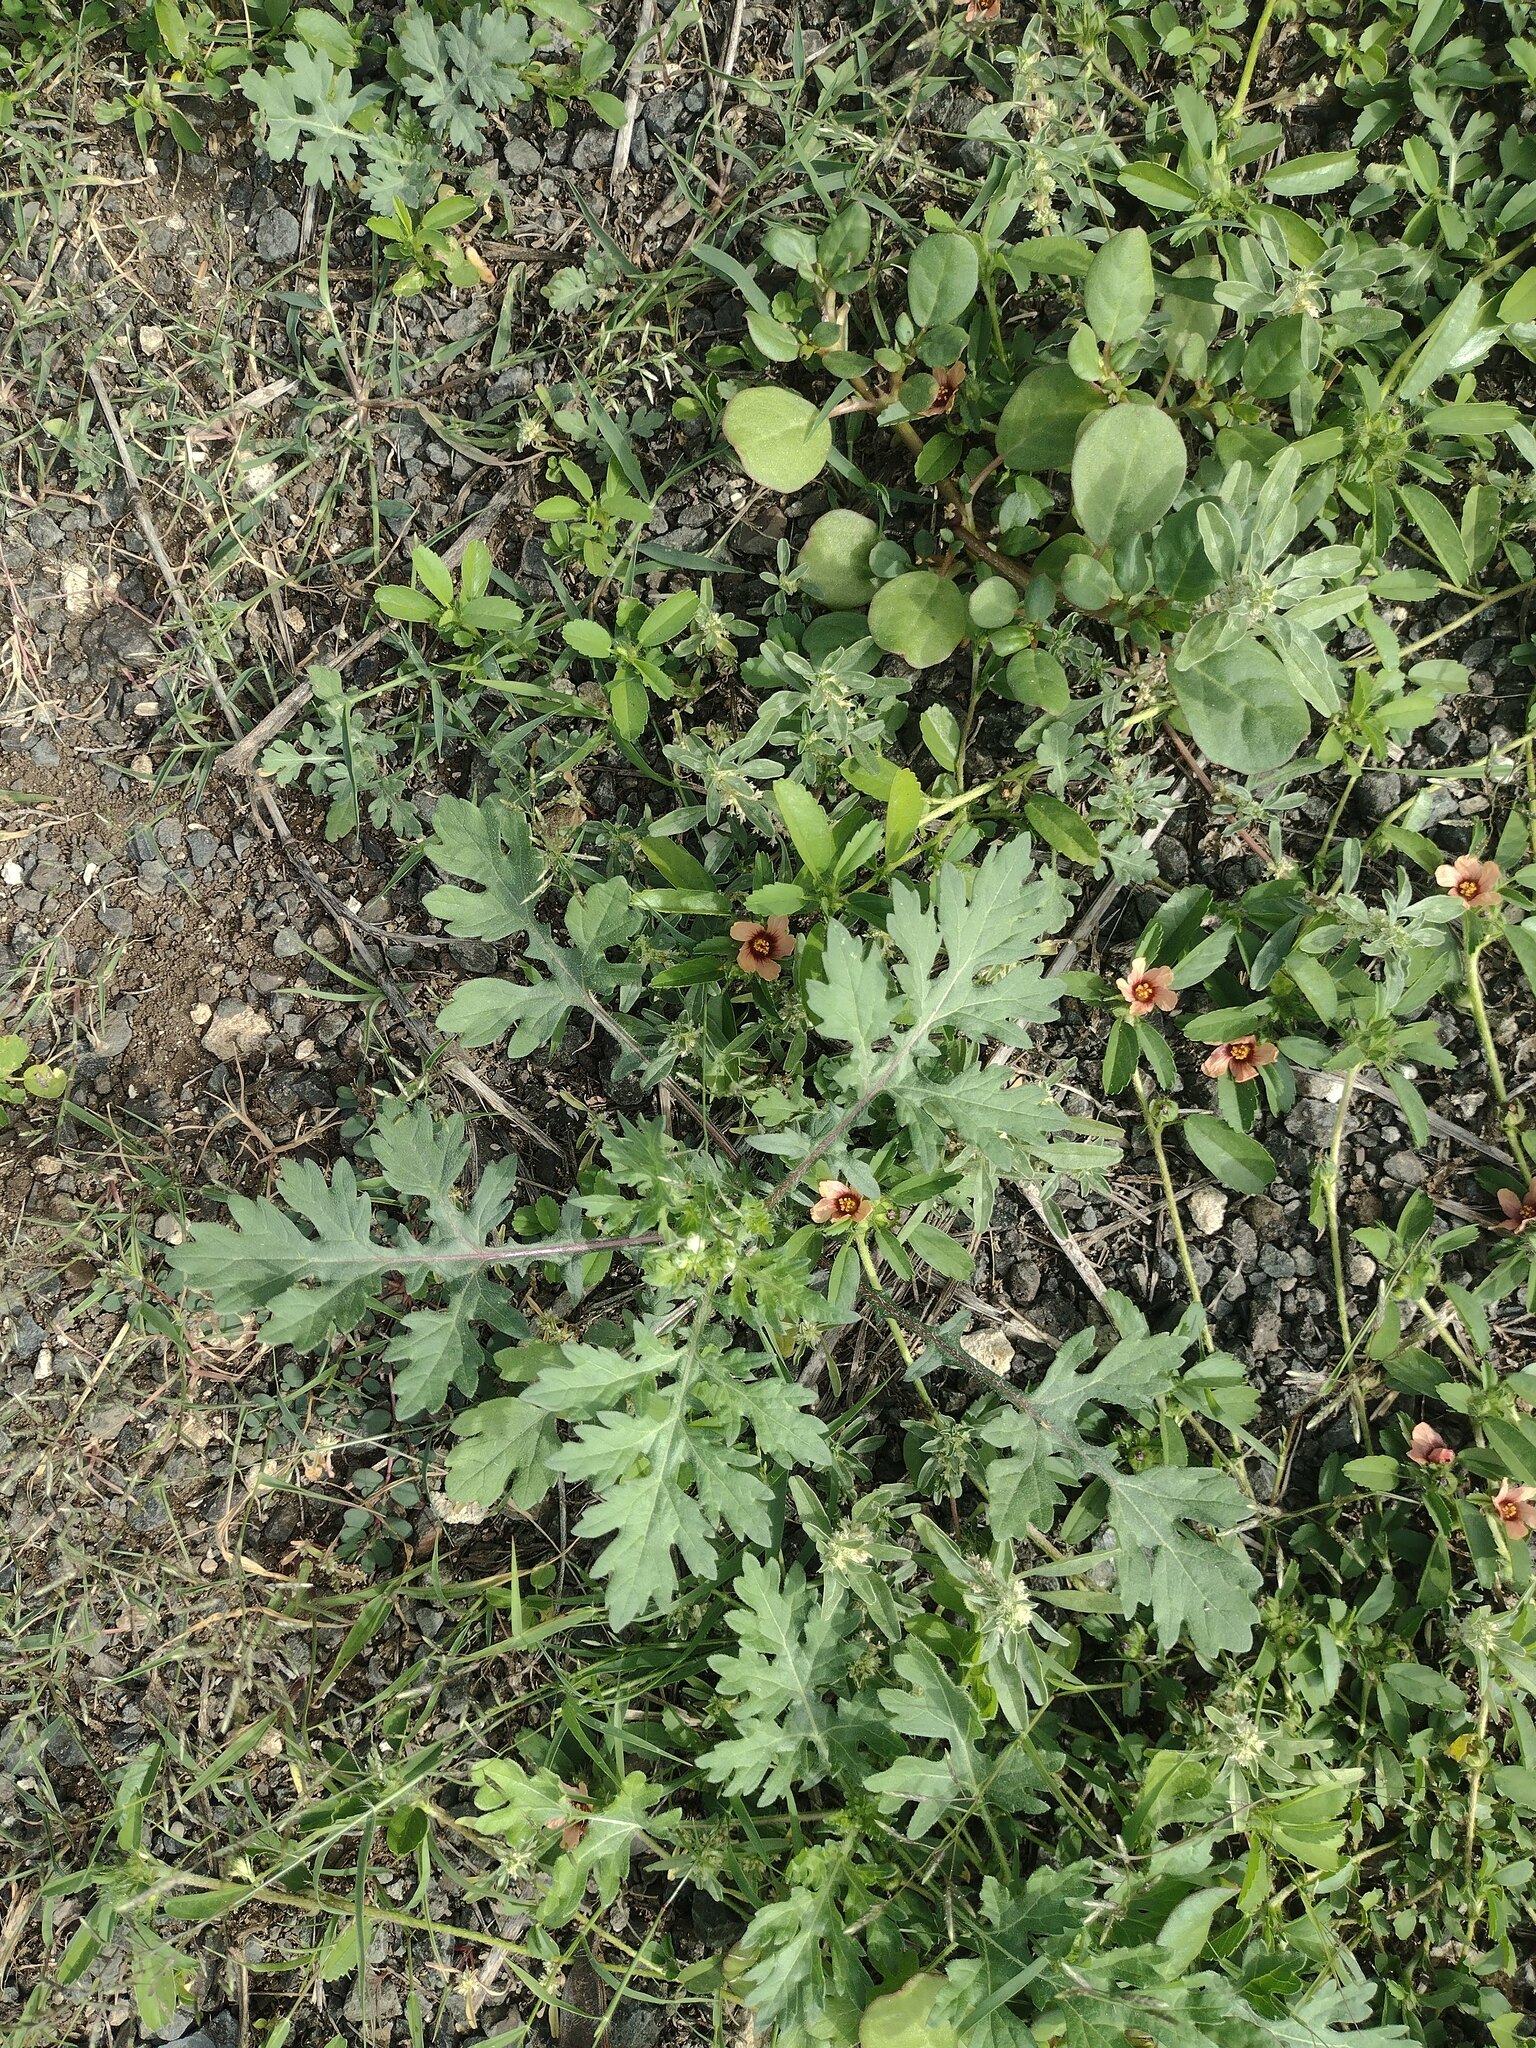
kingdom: Plantae
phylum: Tracheophyta
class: Magnoliopsida
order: Malvales
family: Malvaceae
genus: Sida
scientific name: Sida ciliaris
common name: Bracted fanpetals
